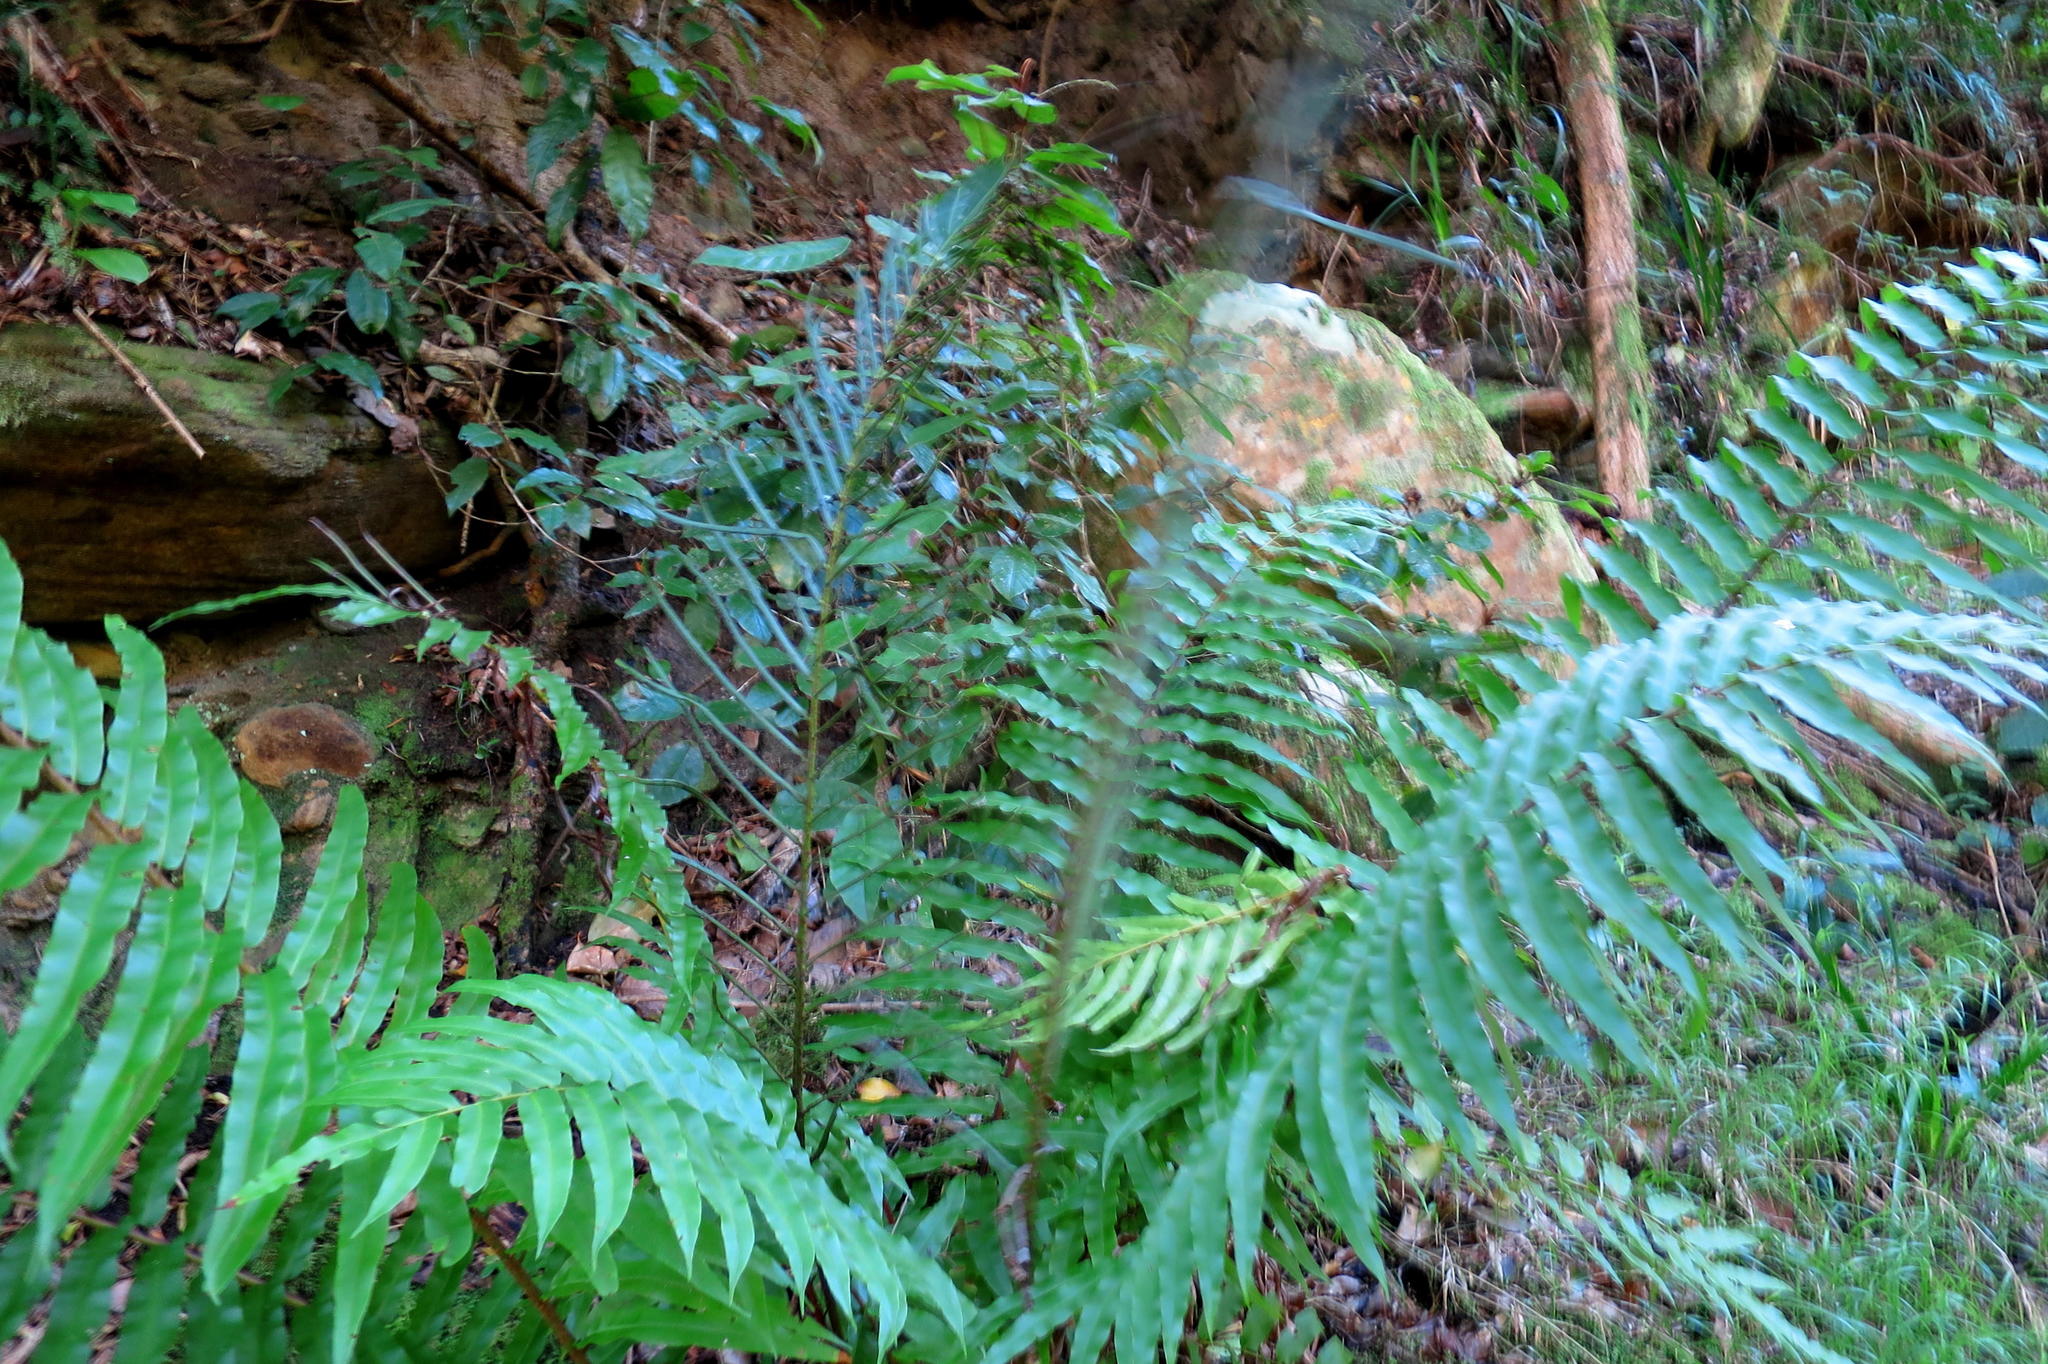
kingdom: Plantae
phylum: Tracheophyta
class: Polypodiopsida
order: Polypodiales
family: Blechnaceae
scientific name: Blechnaceae
